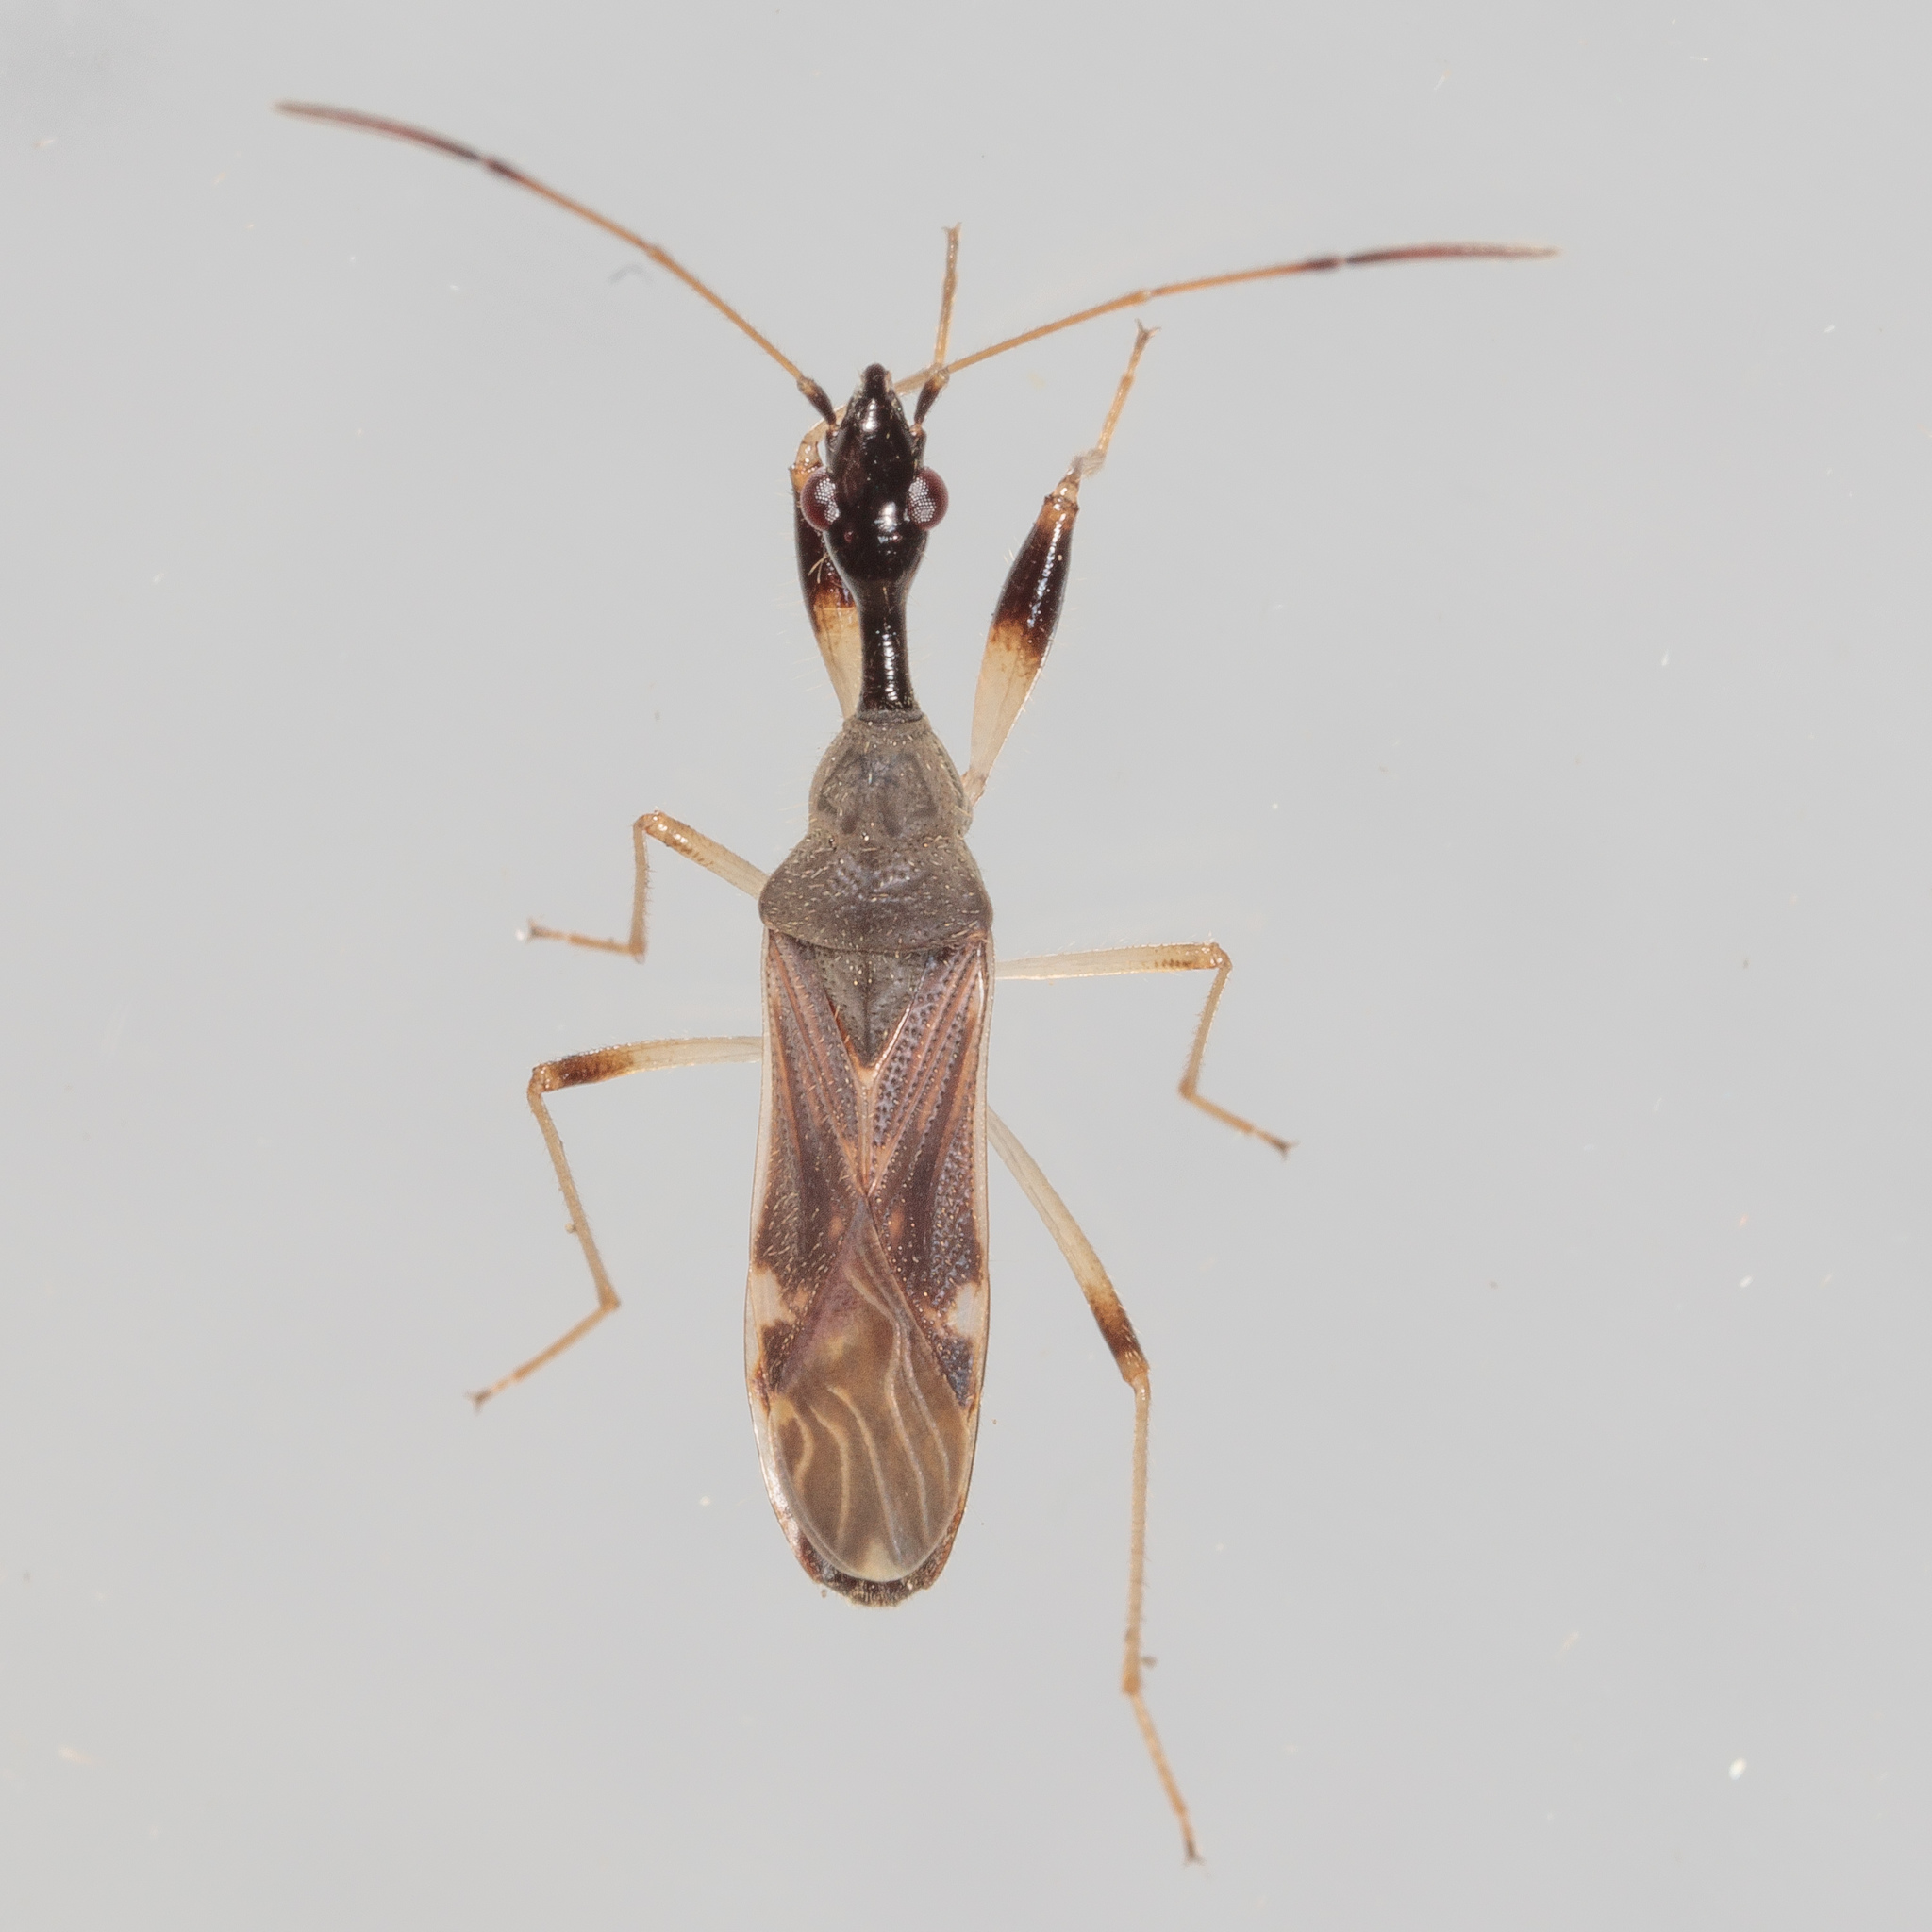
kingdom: Animalia
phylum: Arthropoda
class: Insecta
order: Hemiptera
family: Rhyparochromidae
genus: Myodocha
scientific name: Myodocha serripes
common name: Long-necked seed bug
